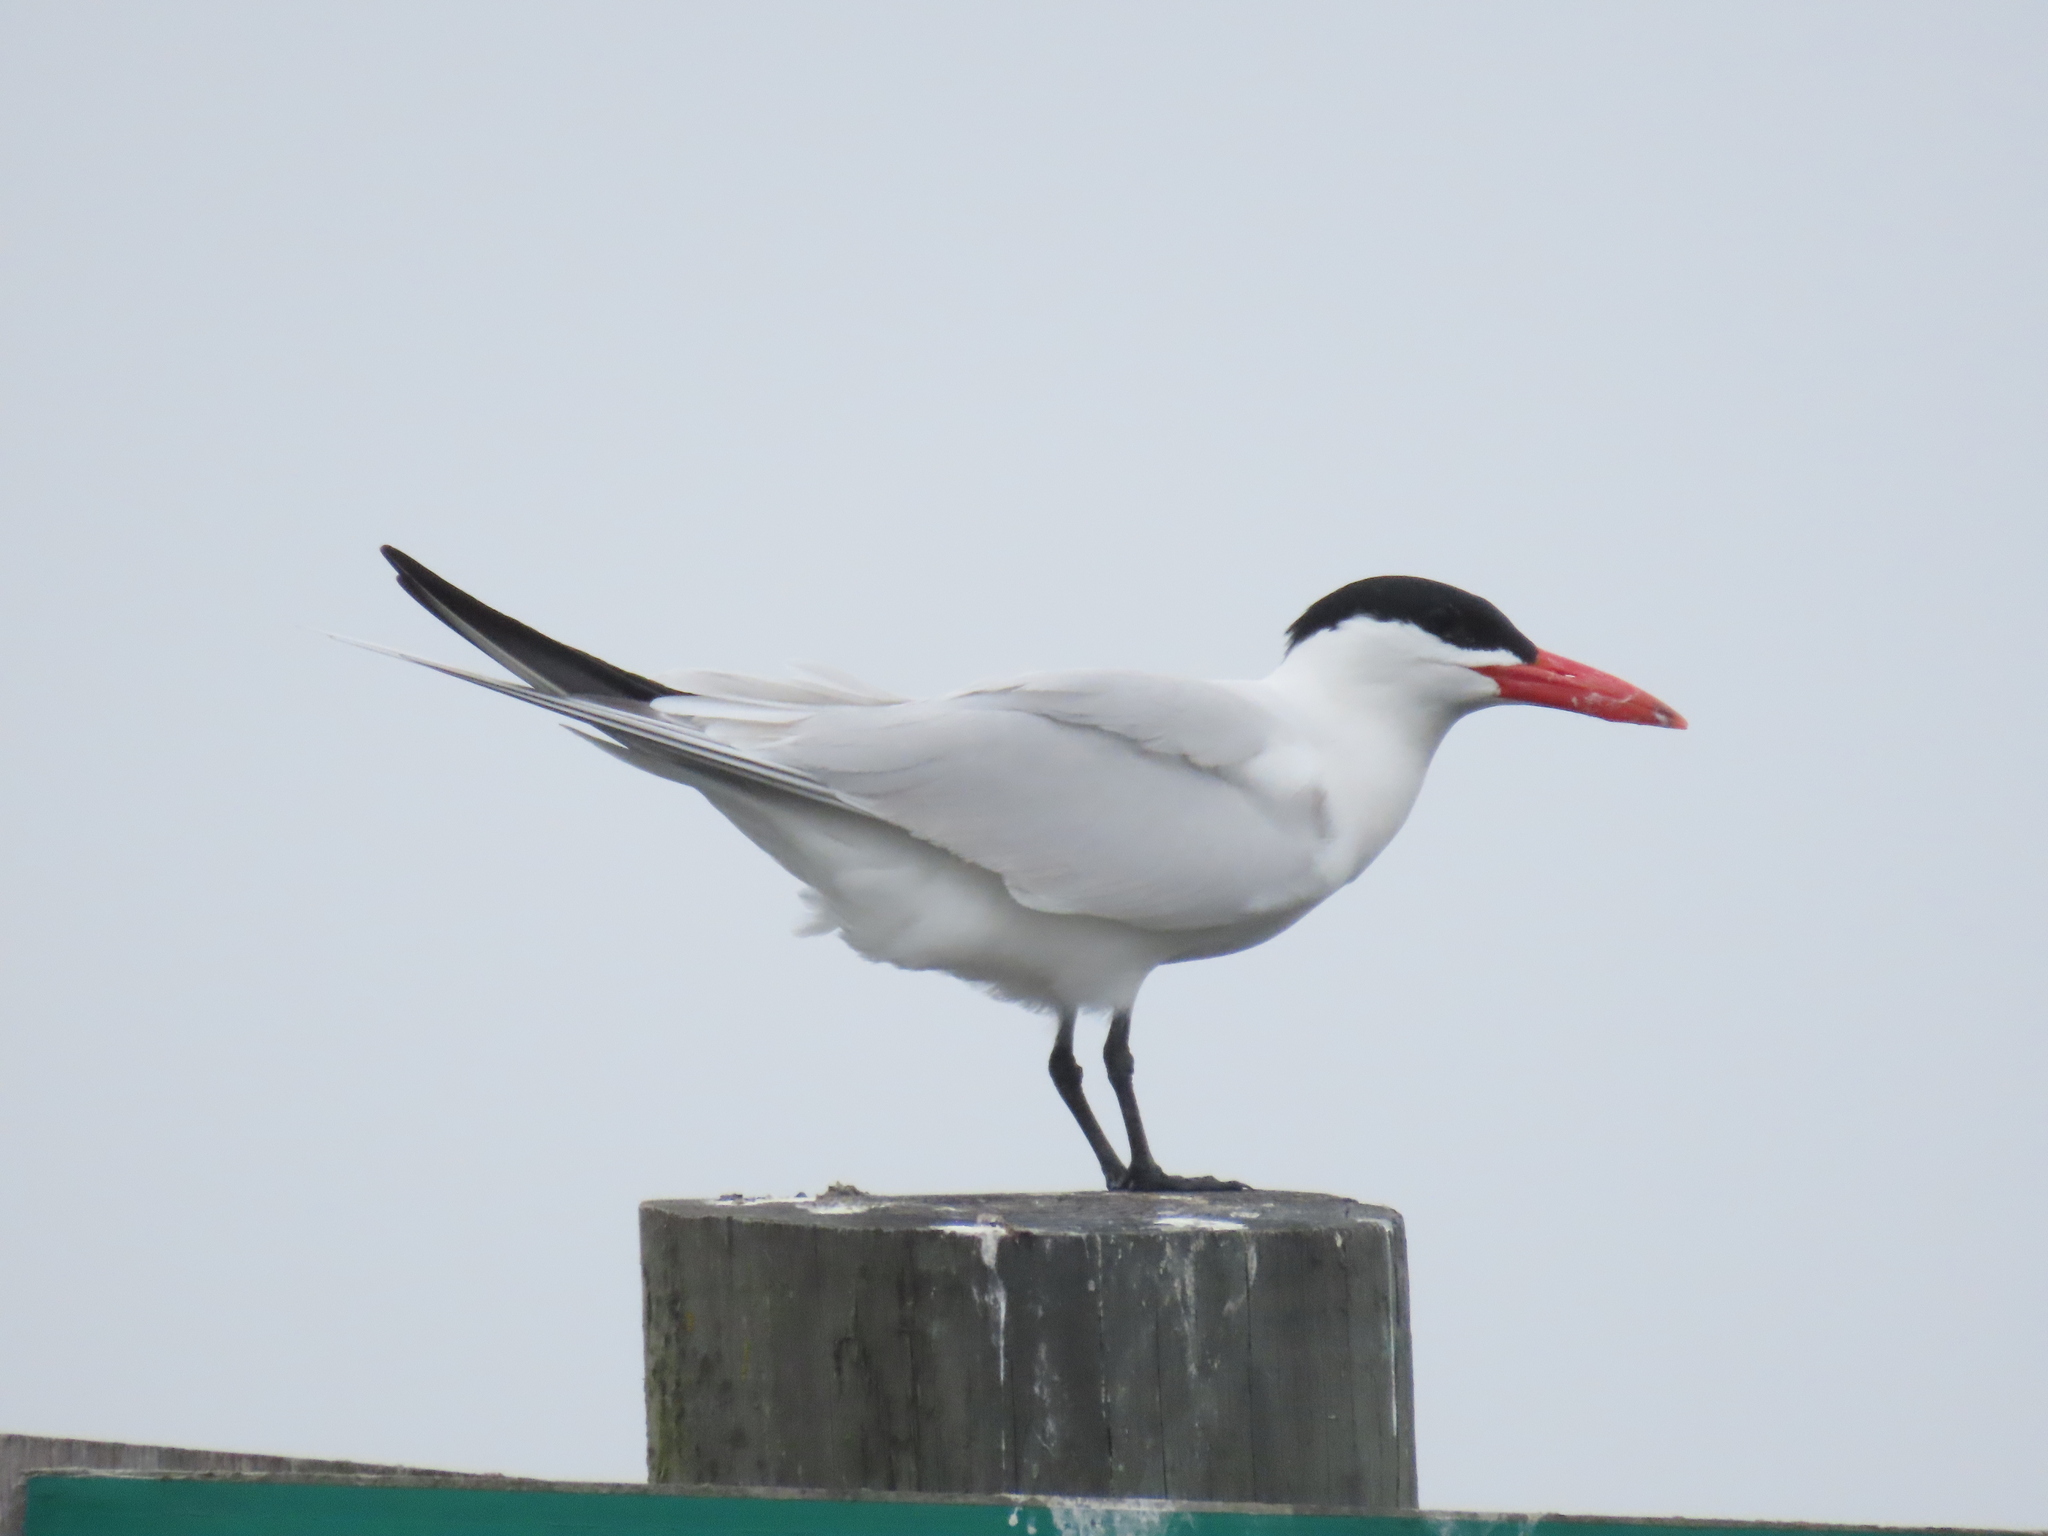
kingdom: Animalia
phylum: Chordata
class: Aves
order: Charadriiformes
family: Laridae
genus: Hydroprogne
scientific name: Hydroprogne caspia
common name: Caspian tern
